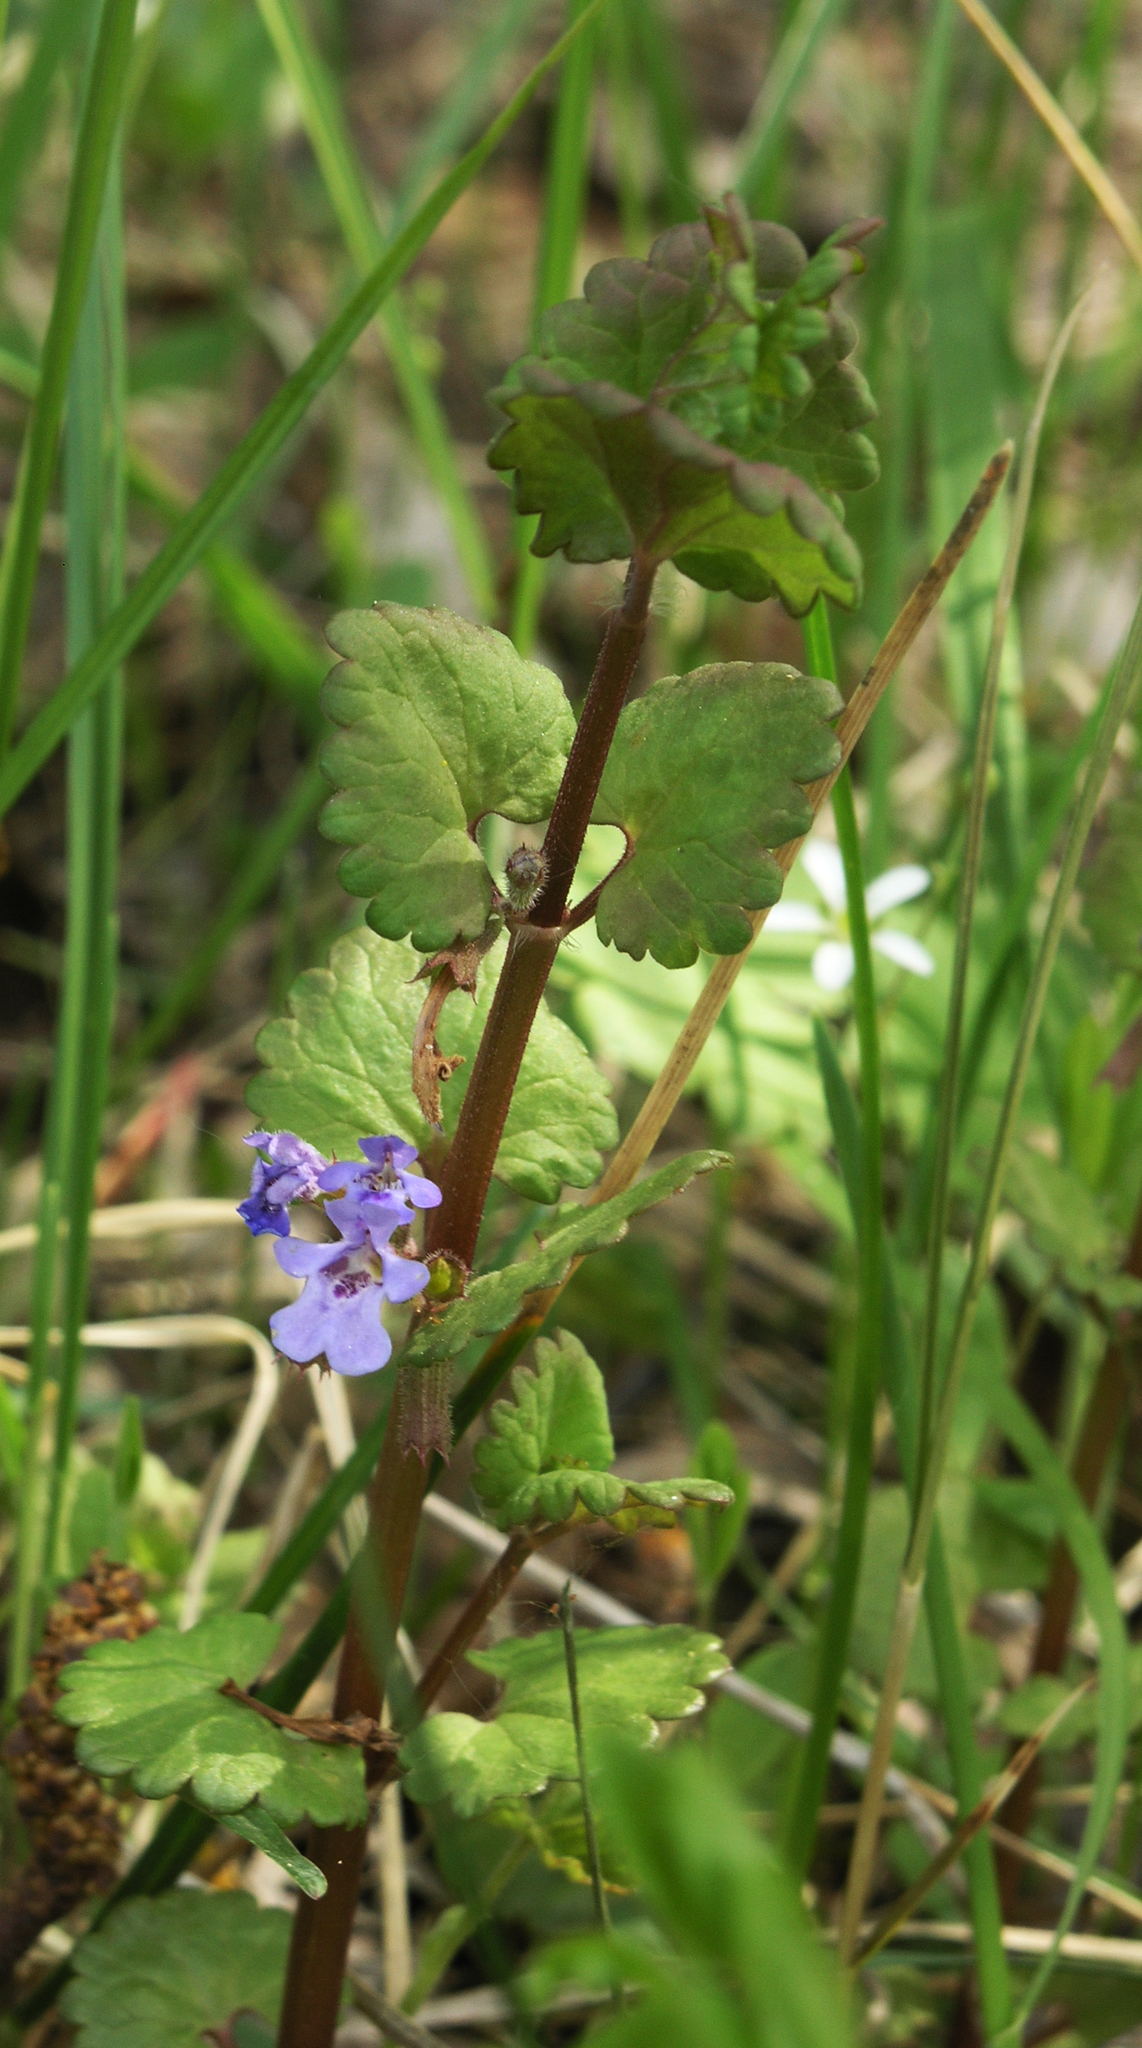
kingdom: Plantae
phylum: Tracheophyta
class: Magnoliopsida
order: Lamiales
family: Lamiaceae
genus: Glechoma
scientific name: Glechoma hederacea
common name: Ground ivy
